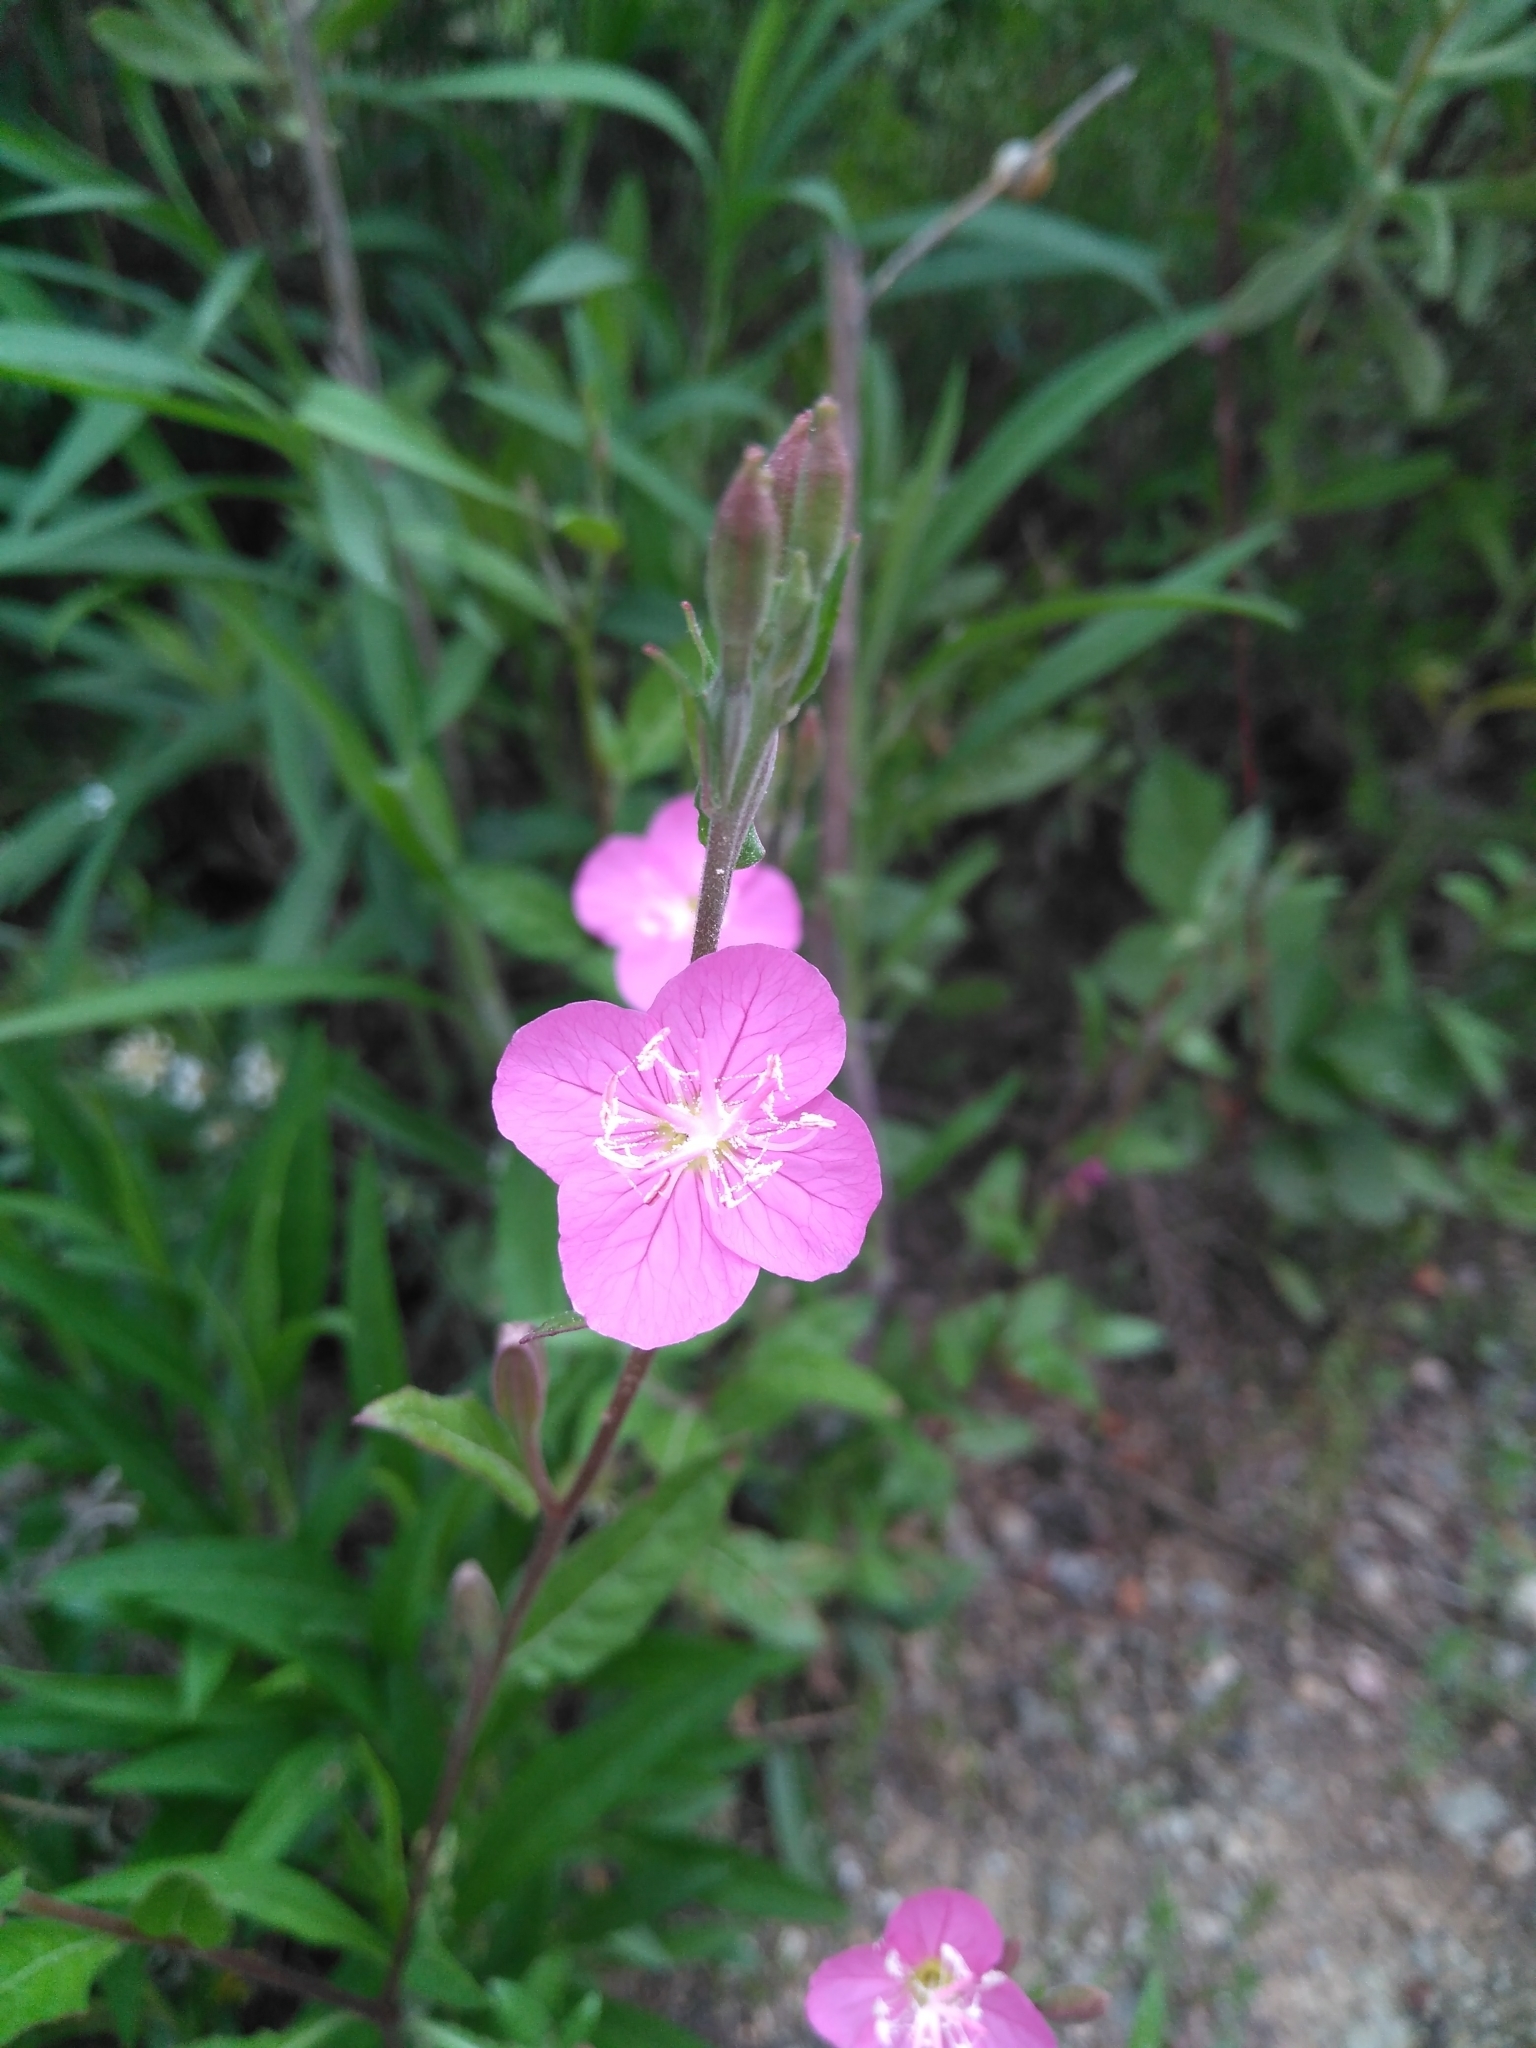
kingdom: Plantae
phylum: Tracheophyta
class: Magnoliopsida
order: Myrtales
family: Onagraceae
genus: Oenothera
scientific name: Oenothera rosea
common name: Rosy evening-primrose
